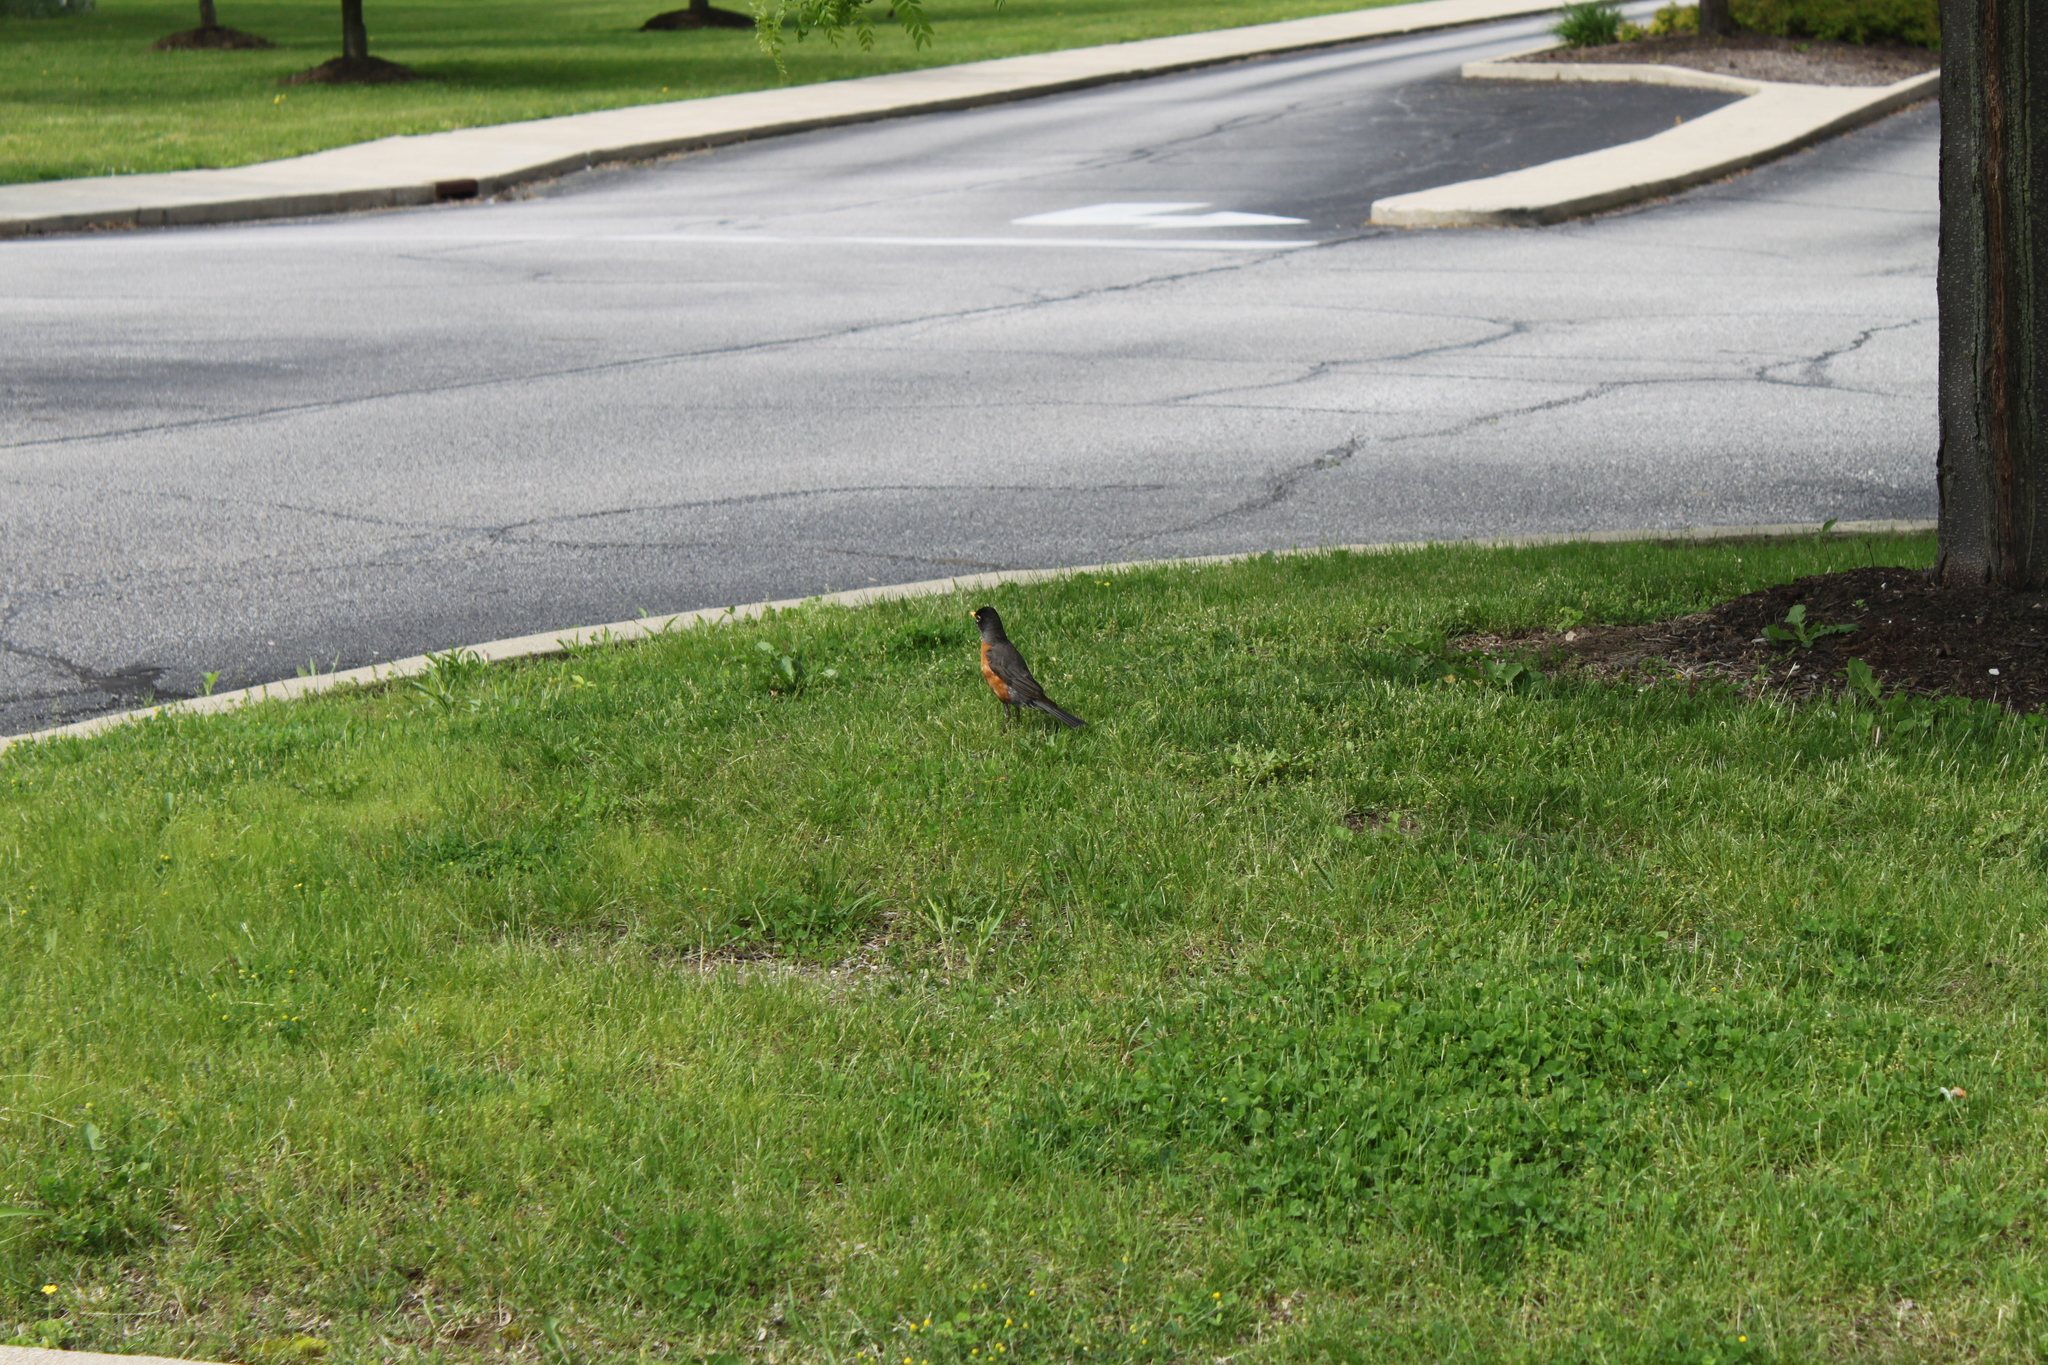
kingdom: Animalia
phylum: Chordata
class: Aves
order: Passeriformes
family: Turdidae
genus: Turdus
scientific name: Turdus migratorius
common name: American robin
